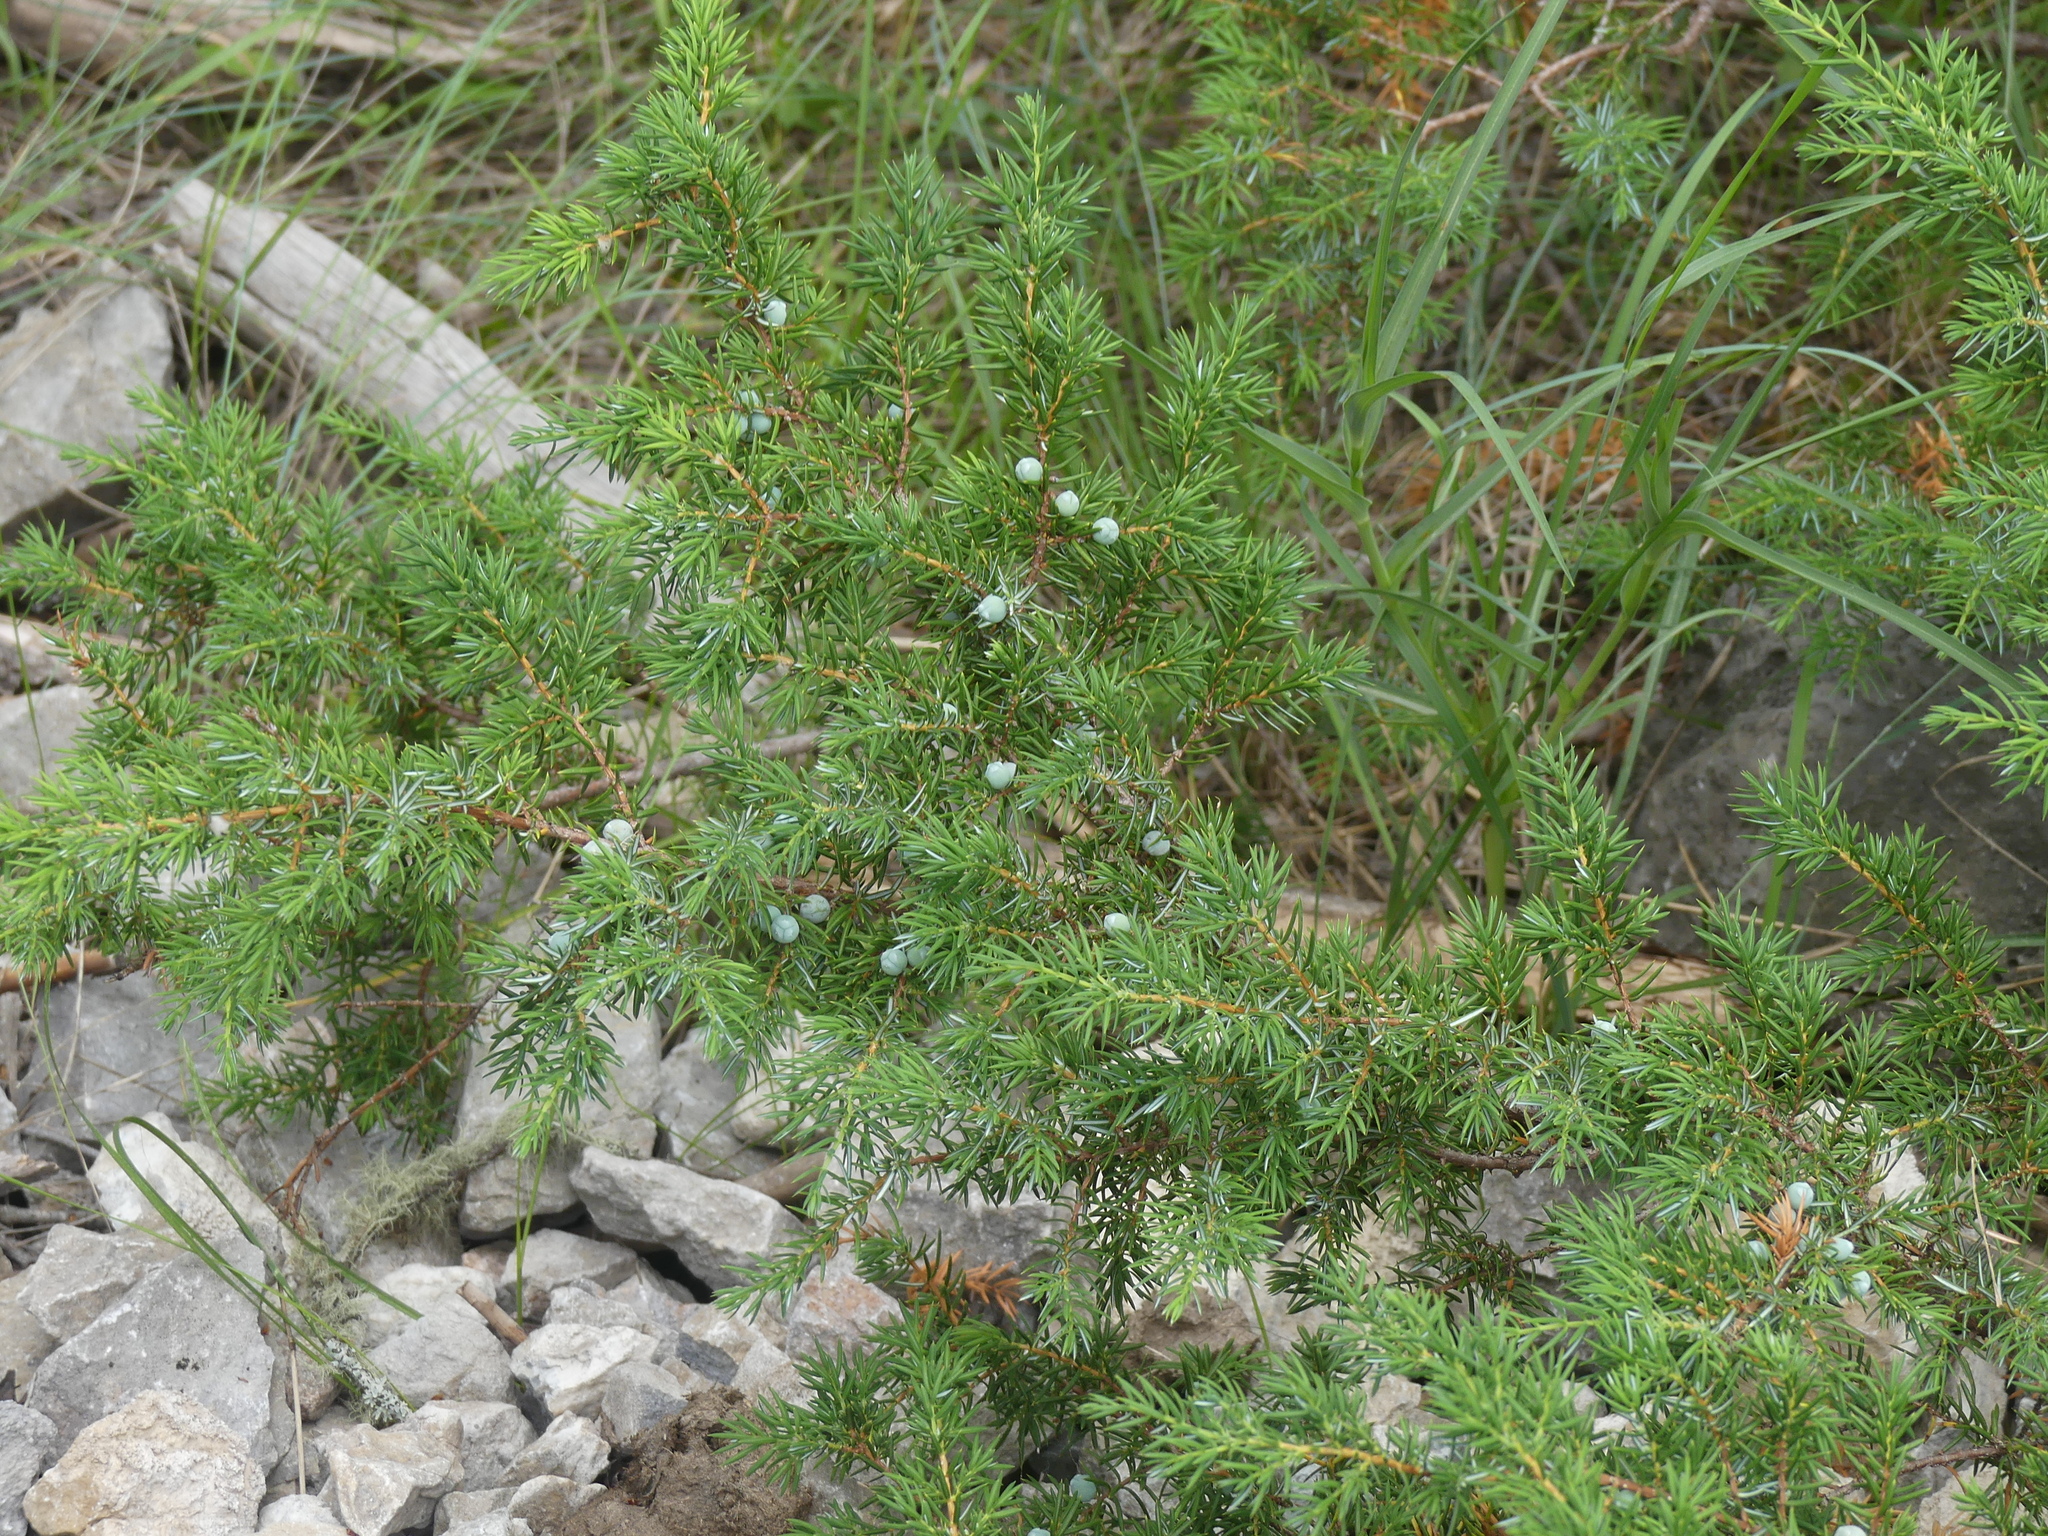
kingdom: Plantae
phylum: Tracheophyta
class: Pinopsida
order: Pinales
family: Cupressaceae
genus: Juniperus
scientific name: Juniperus communis
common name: Common juniper
